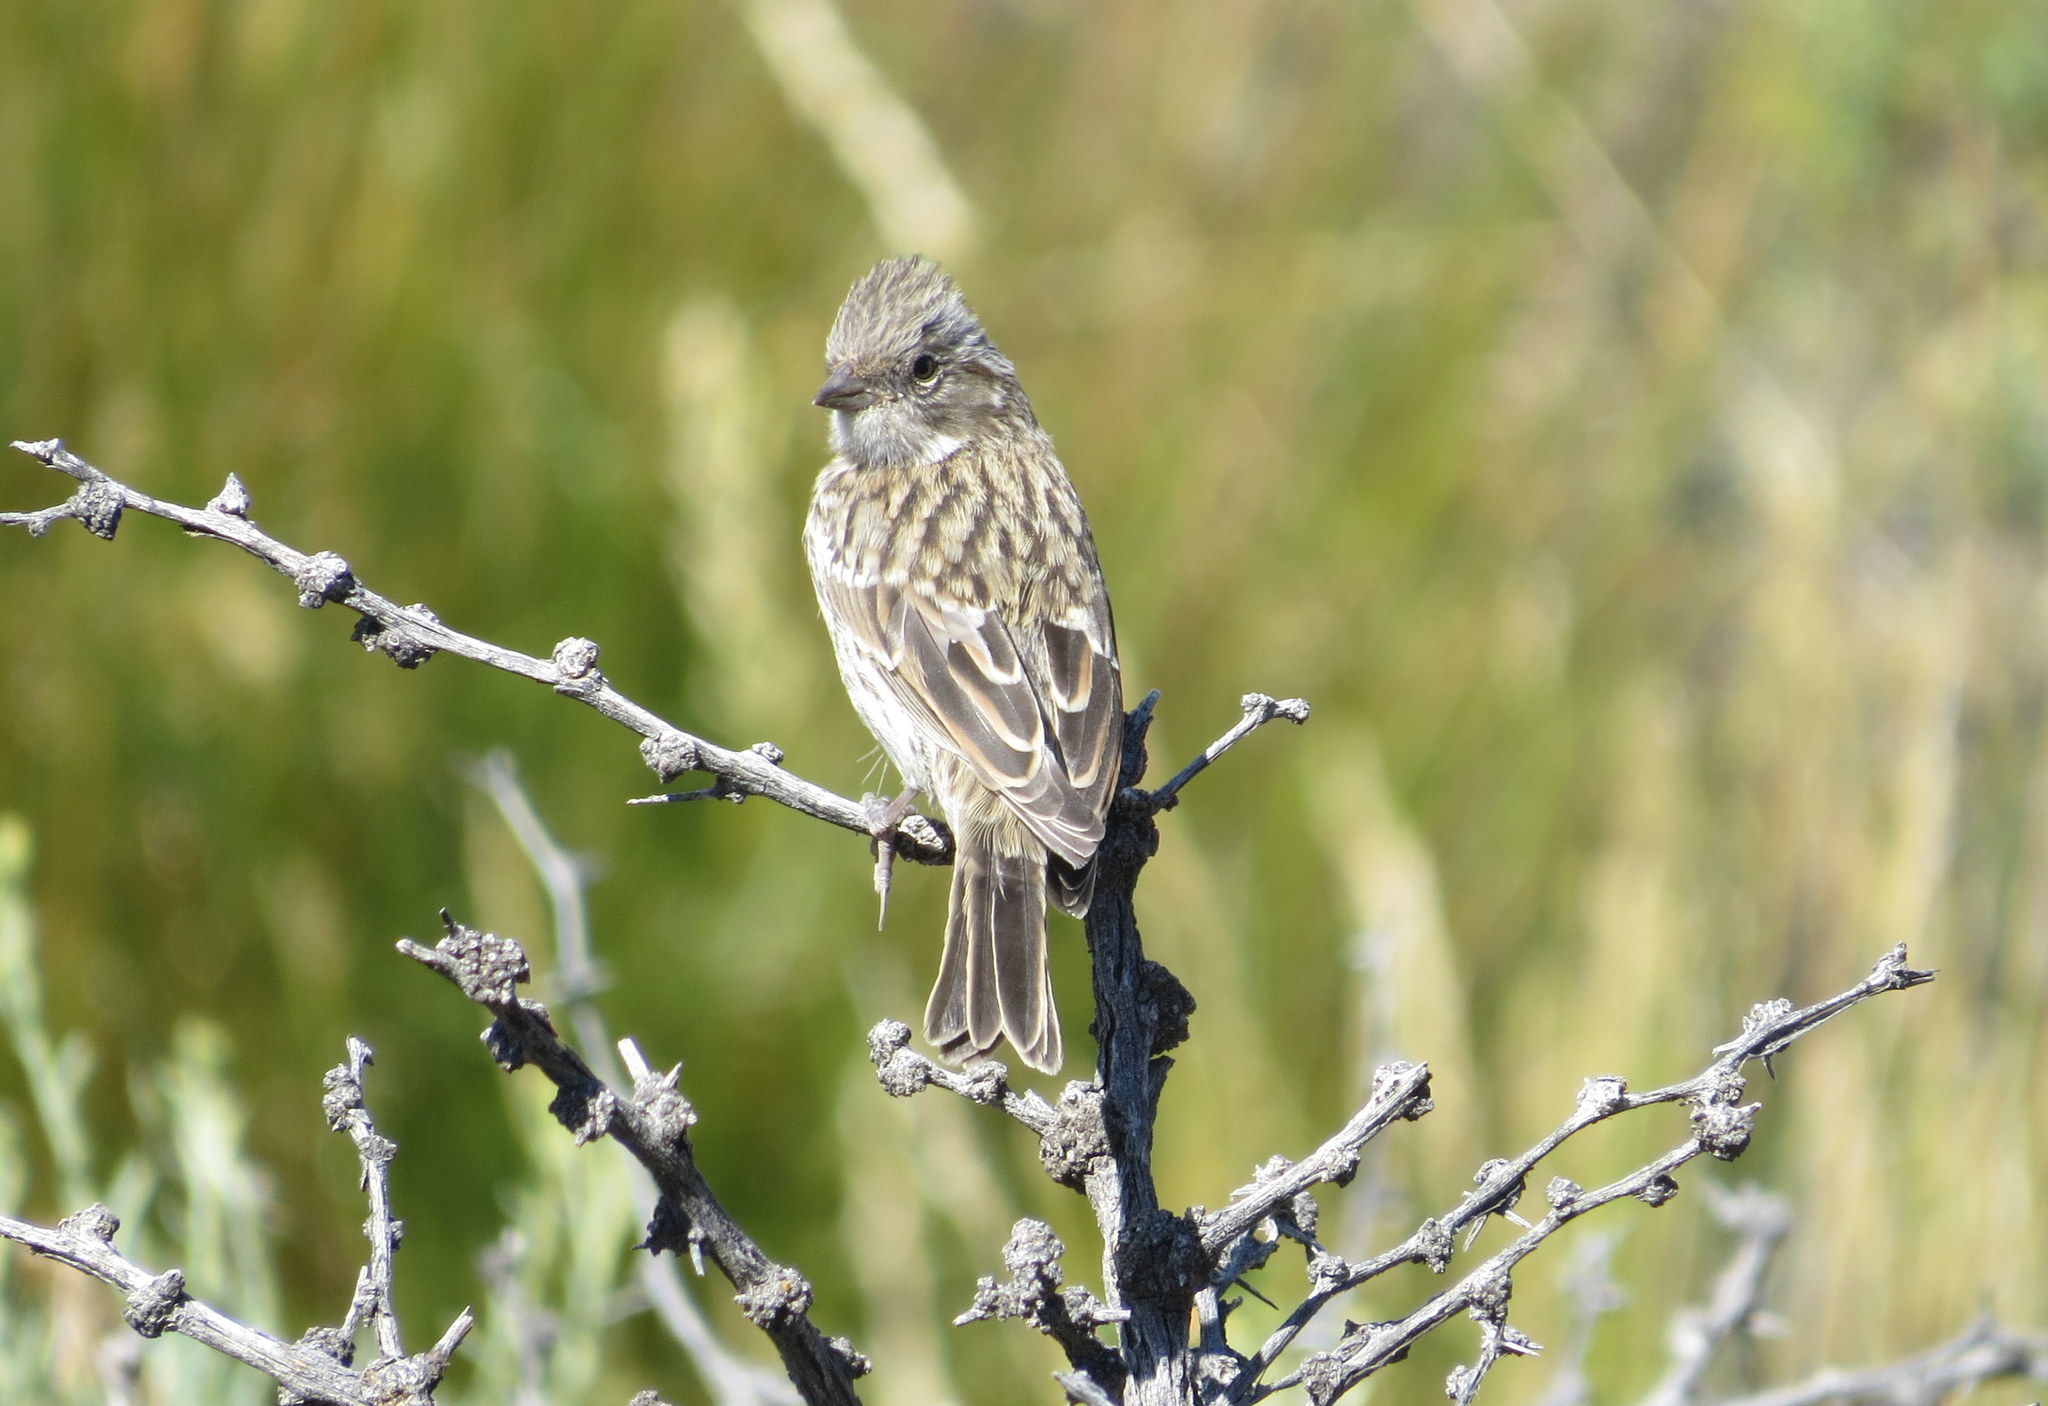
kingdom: Animalia
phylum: Chordata
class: Aves
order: Passeriformes
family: Passerellidae
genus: Zonotrichia
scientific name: Zonotrichia capensis
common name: Rufous-collared sparrow
